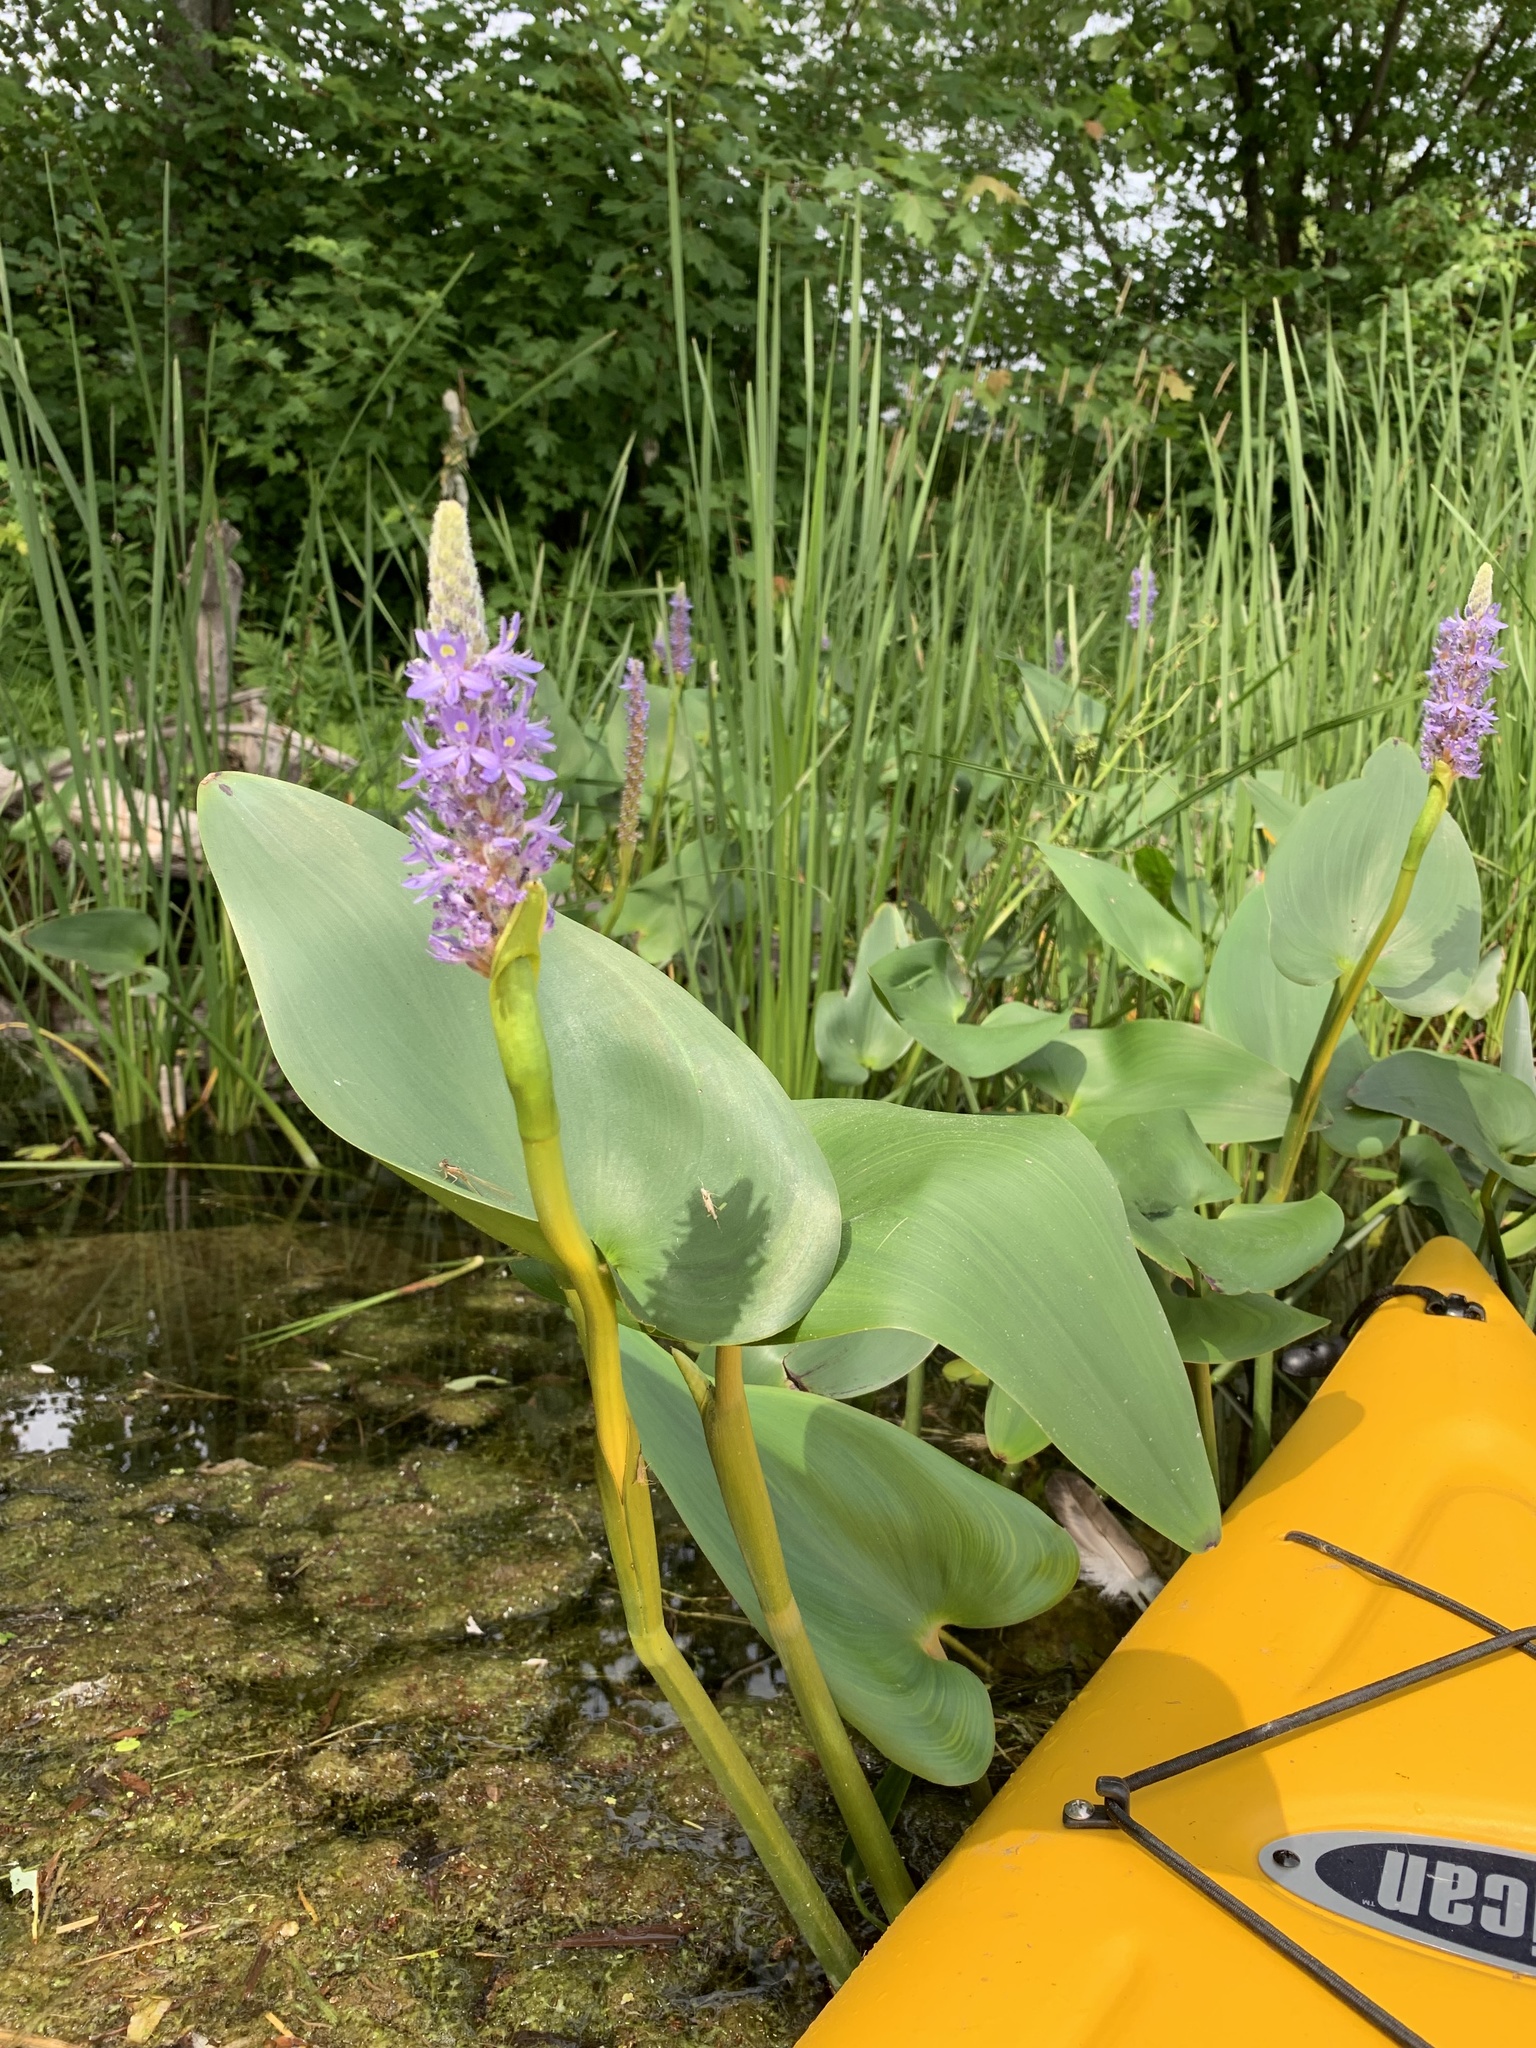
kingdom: Plantae
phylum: Tracheophyta
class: Liliopsida
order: Commelinales
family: Pontederiaceae
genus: Pontederia
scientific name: Pontederia cordata
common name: Pickerelweed
